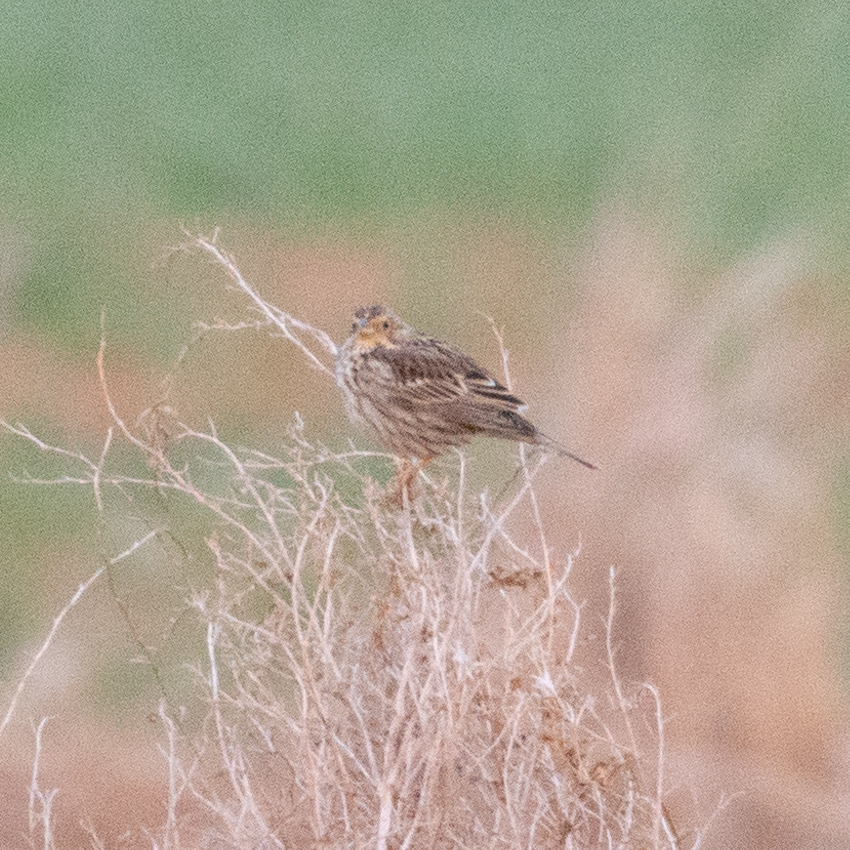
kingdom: Animalia
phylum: Chordata
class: Aves
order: Passeriformes
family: Emberizidae
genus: Emberiza
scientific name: Emberiza calandra
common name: Corn bunting
